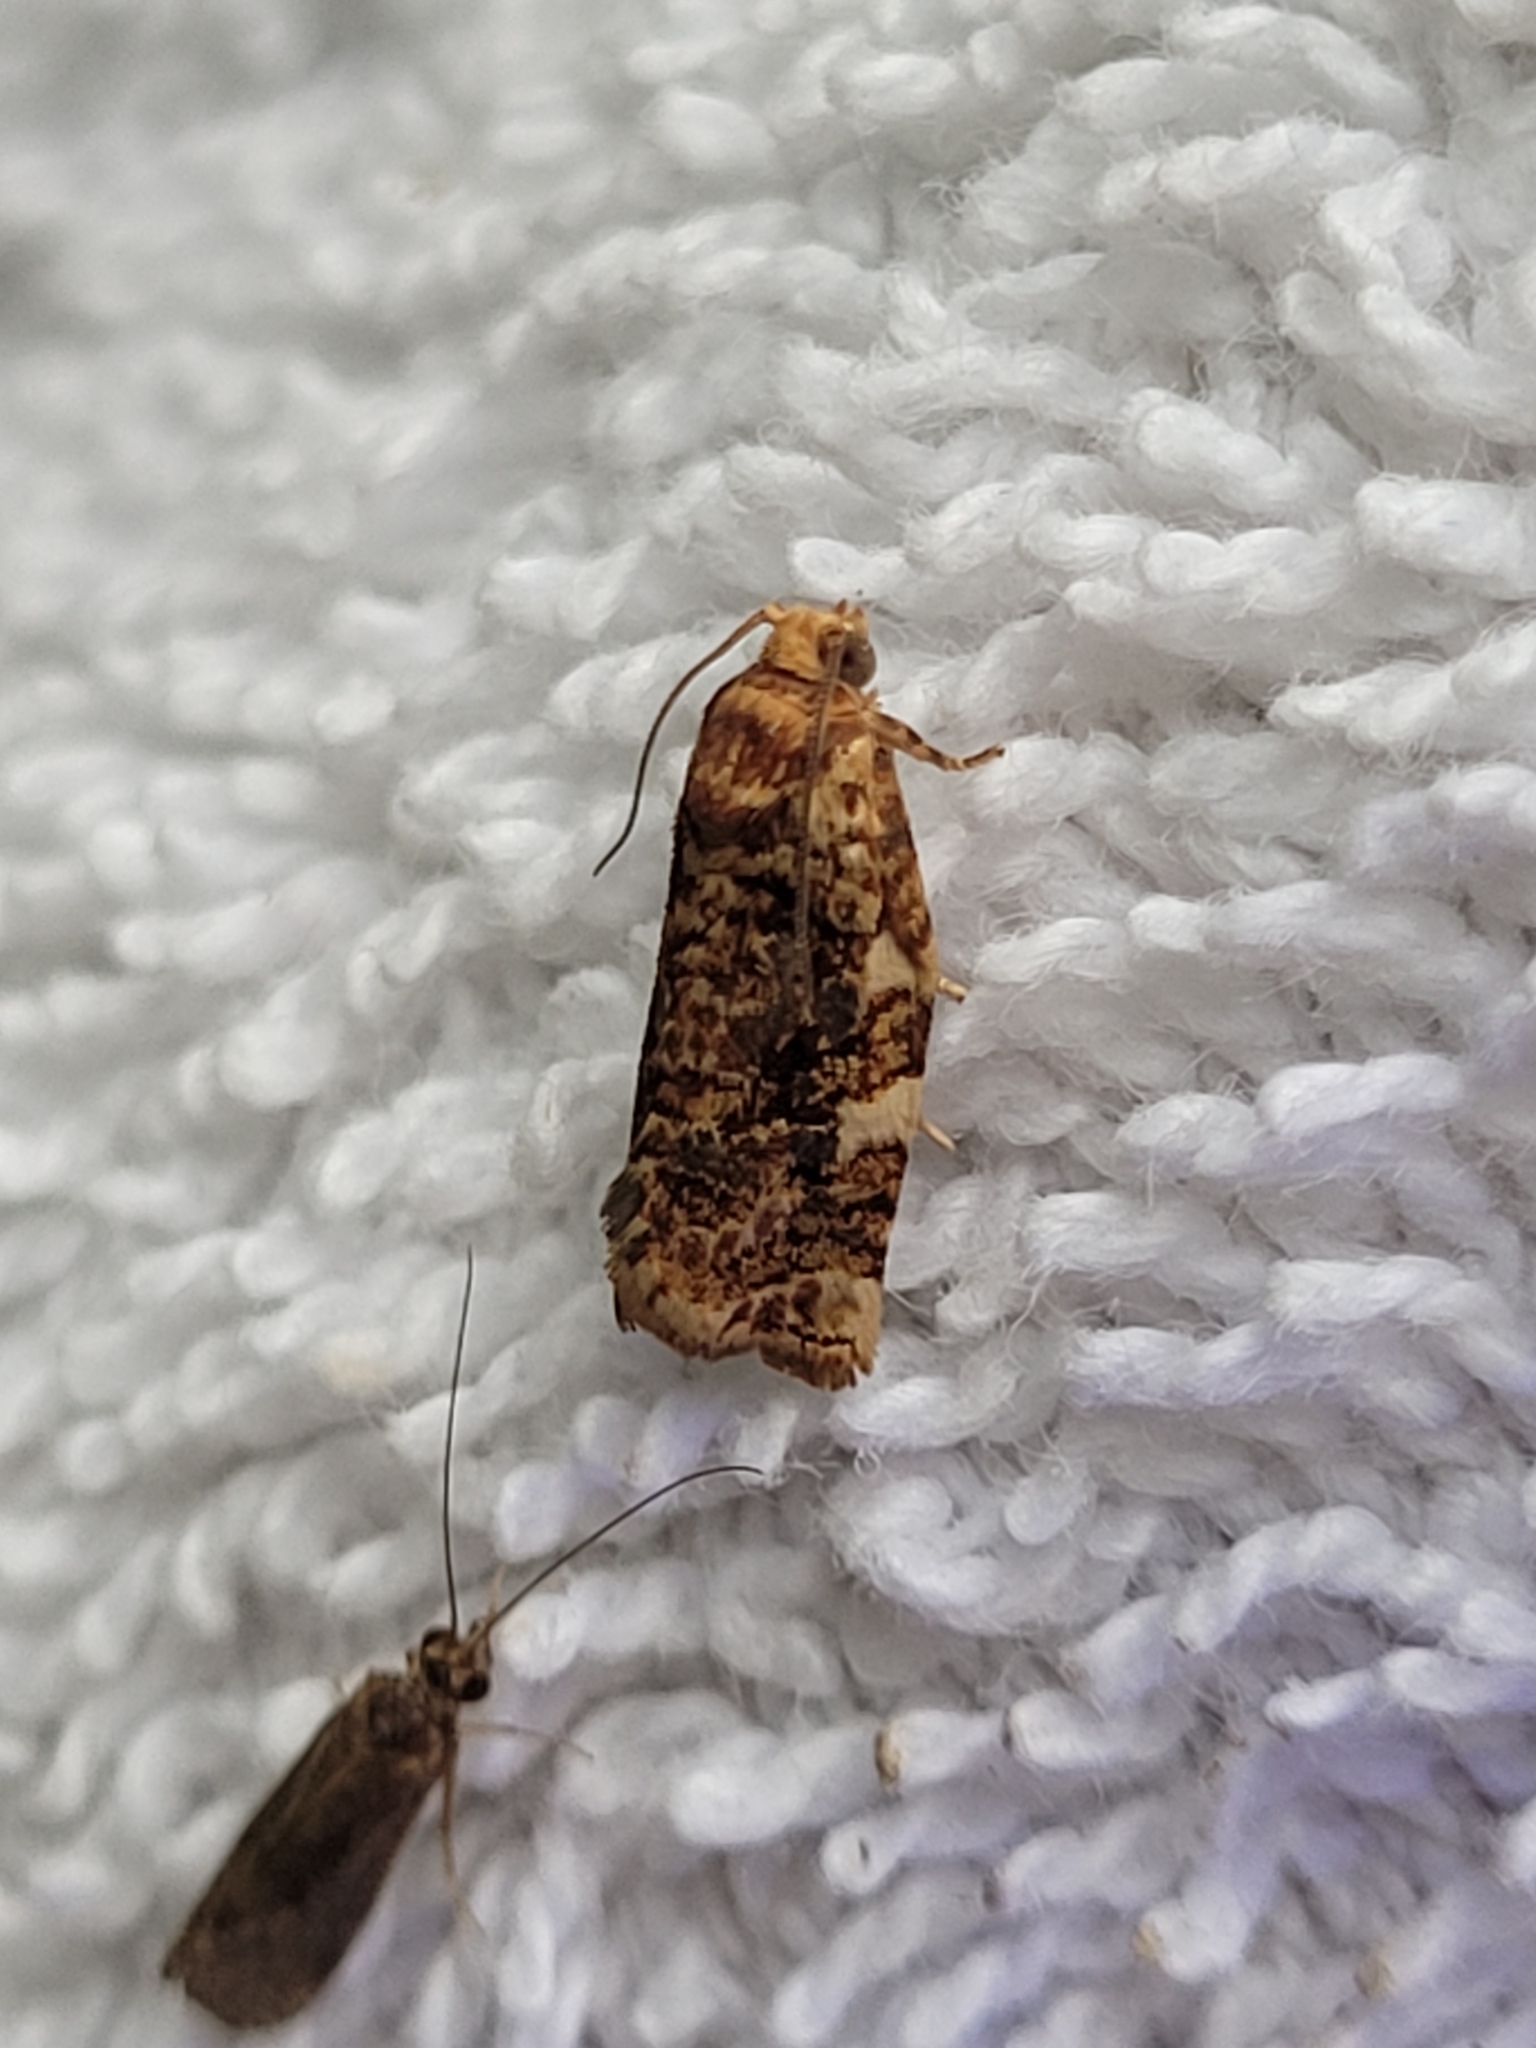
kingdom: Animalia
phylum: Arthropoda
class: Insecta
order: Lepidoptera
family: Tortricidae
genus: Archips
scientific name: Archips argyrospila
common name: Fruit-tree leafroller moth
